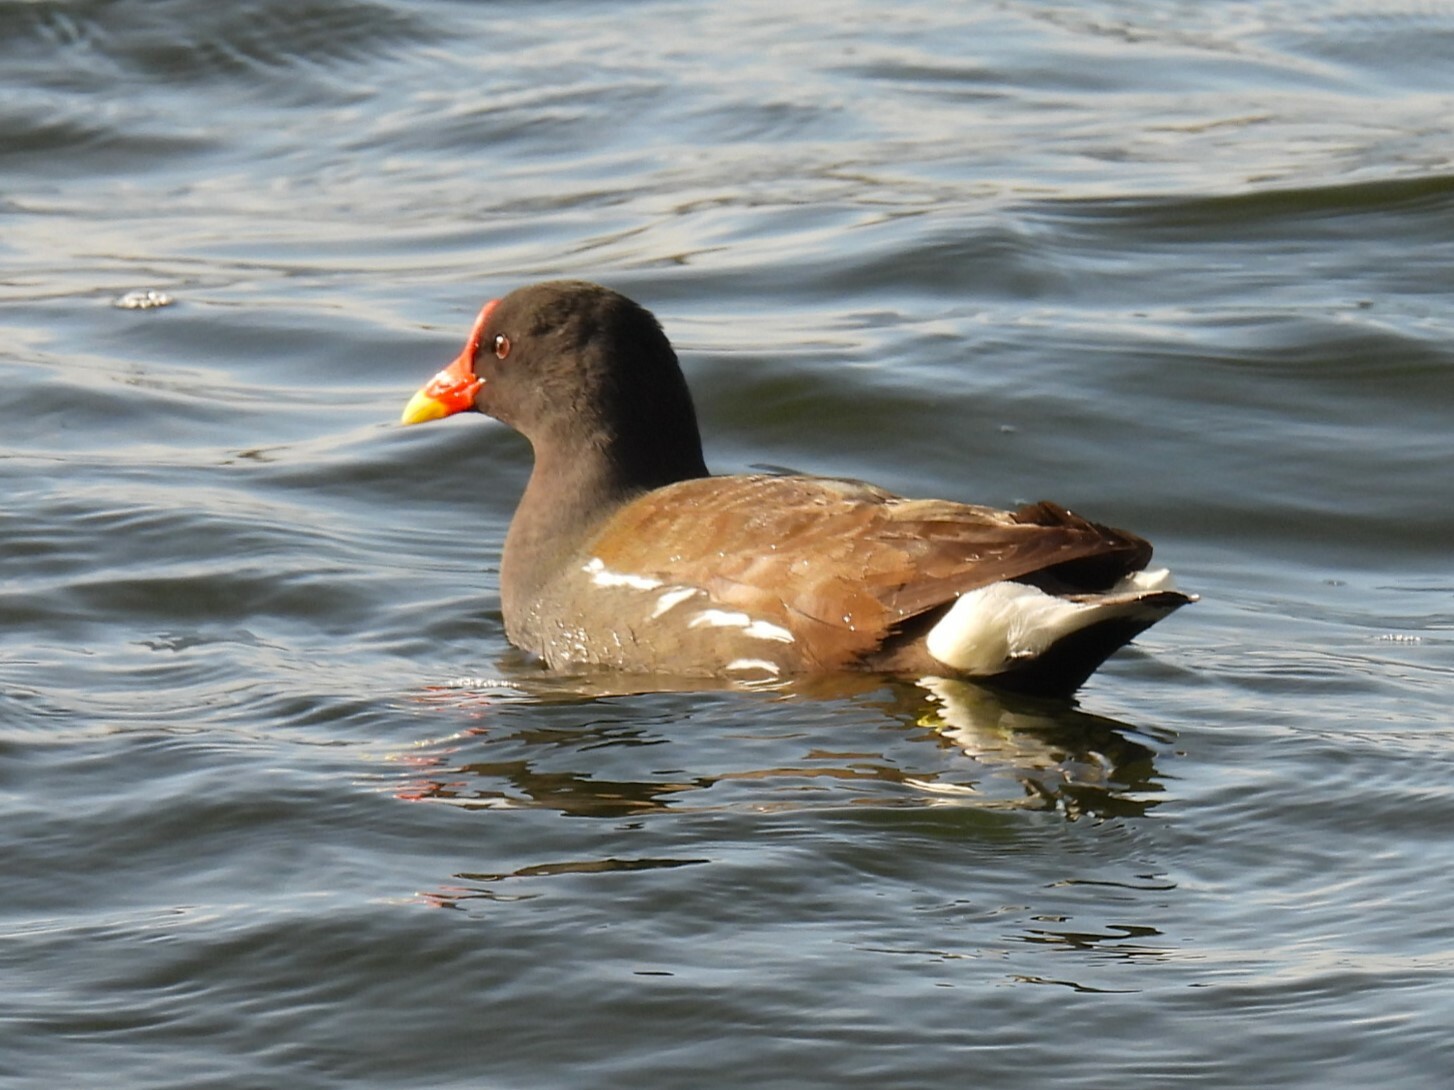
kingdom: Animalia
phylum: Chordata
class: Aves
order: Gruiformes
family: Rallidae
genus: Gallinula
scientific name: Gallinula chloropus
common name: Common moorhen
